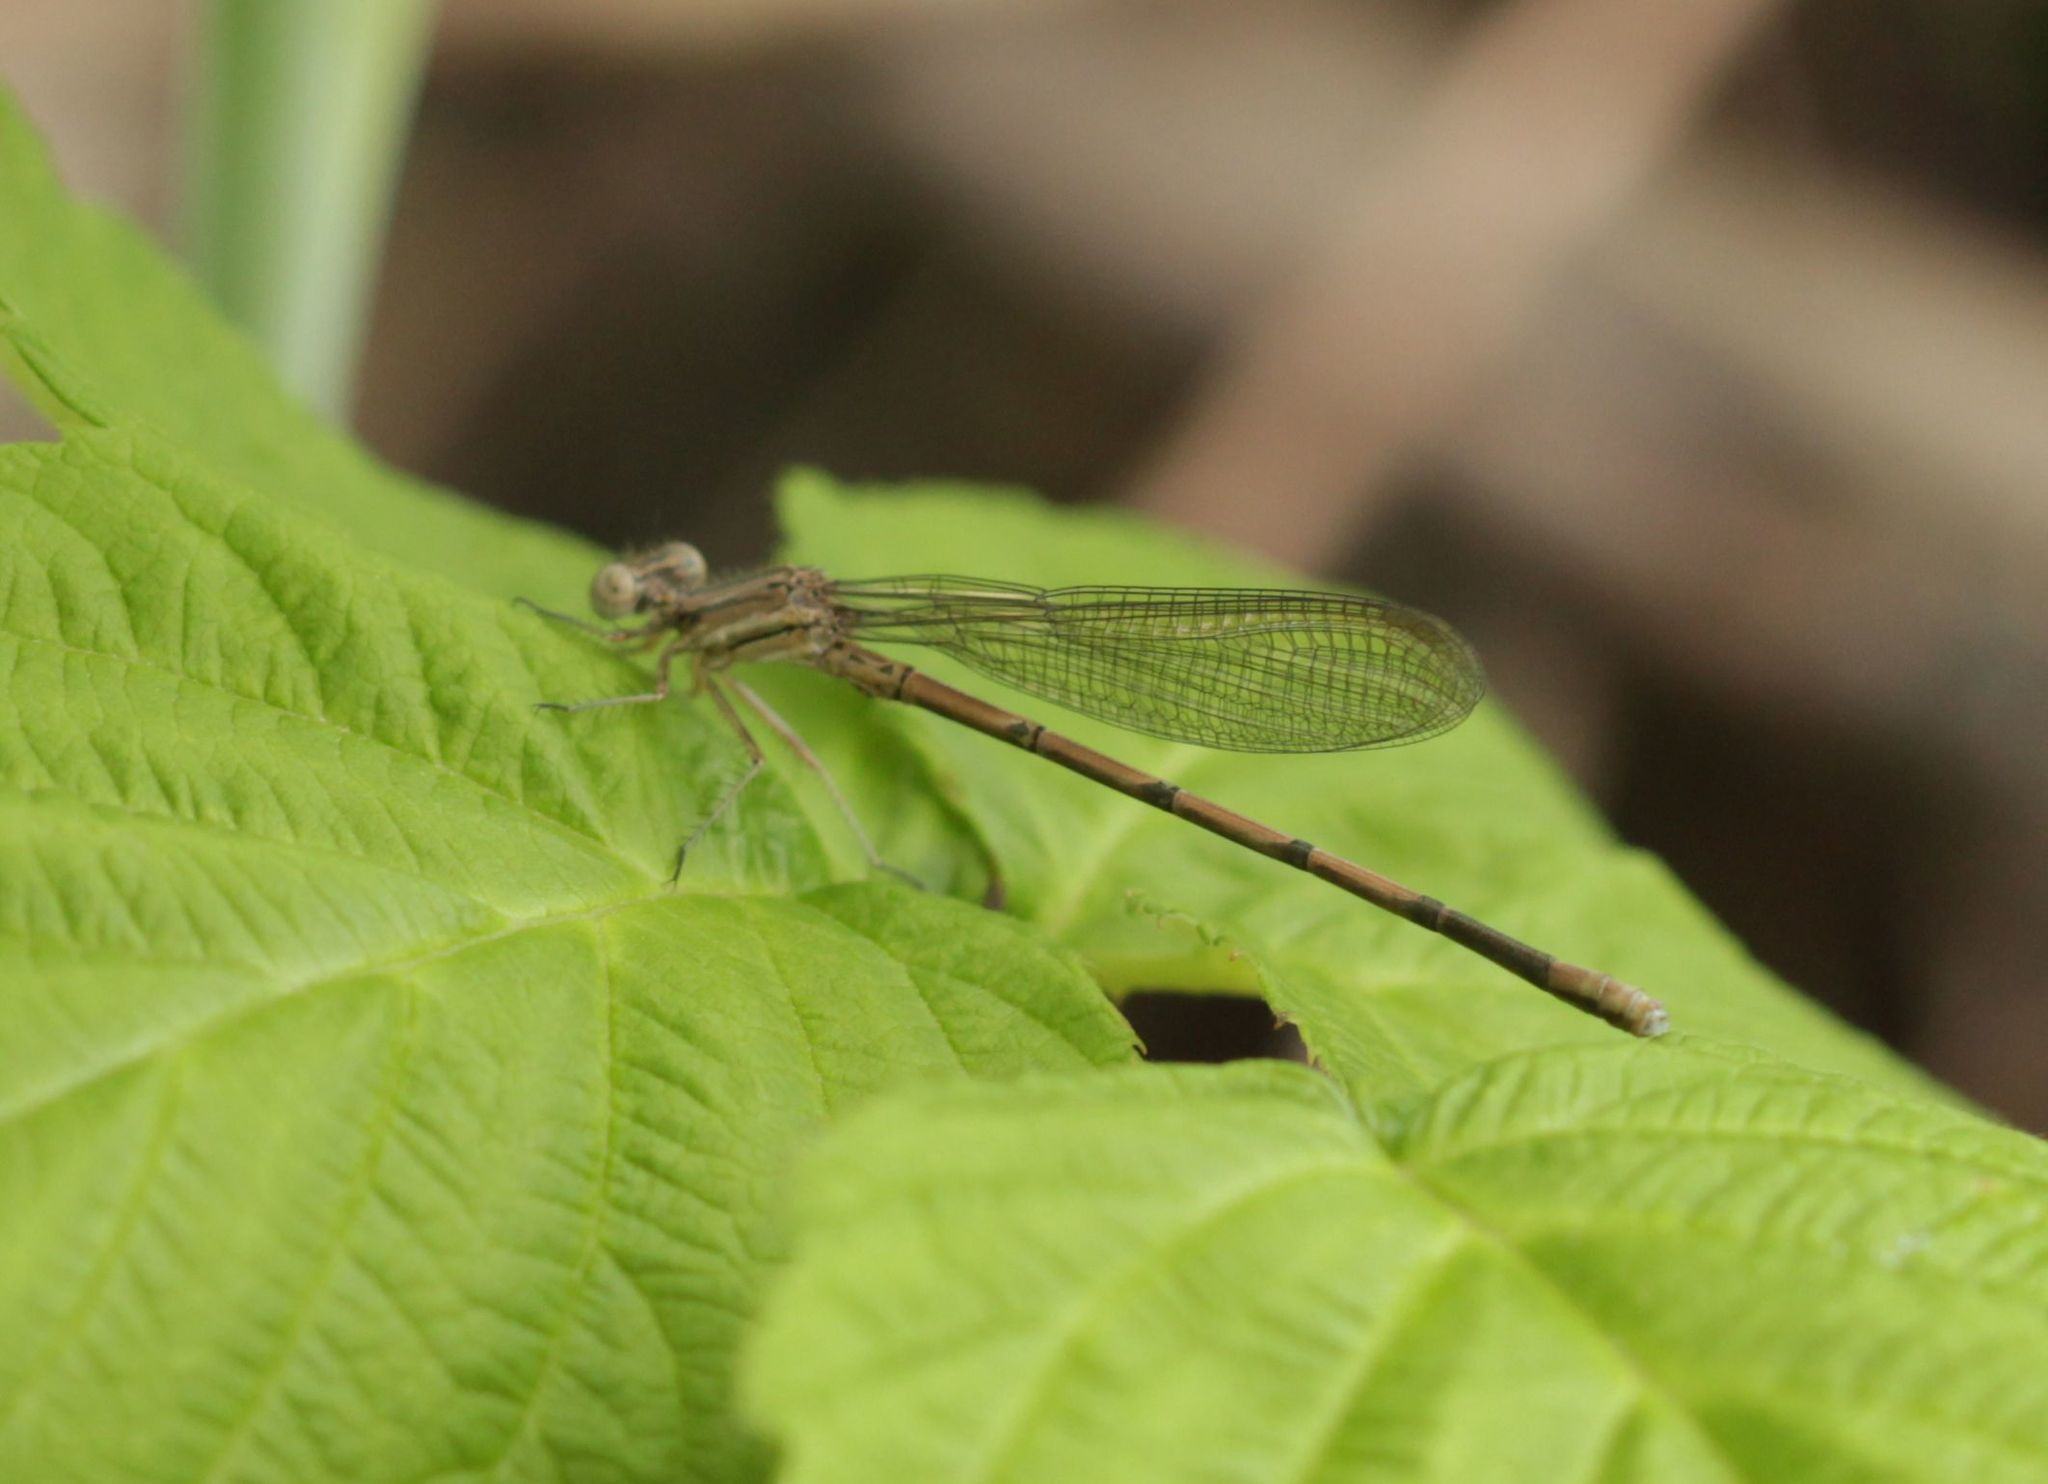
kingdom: Animalia
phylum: Arthropoda
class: Insecta
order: Odonata
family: Coenagrionidae
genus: Argia
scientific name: Argia fumipennis
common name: Variable dancer
